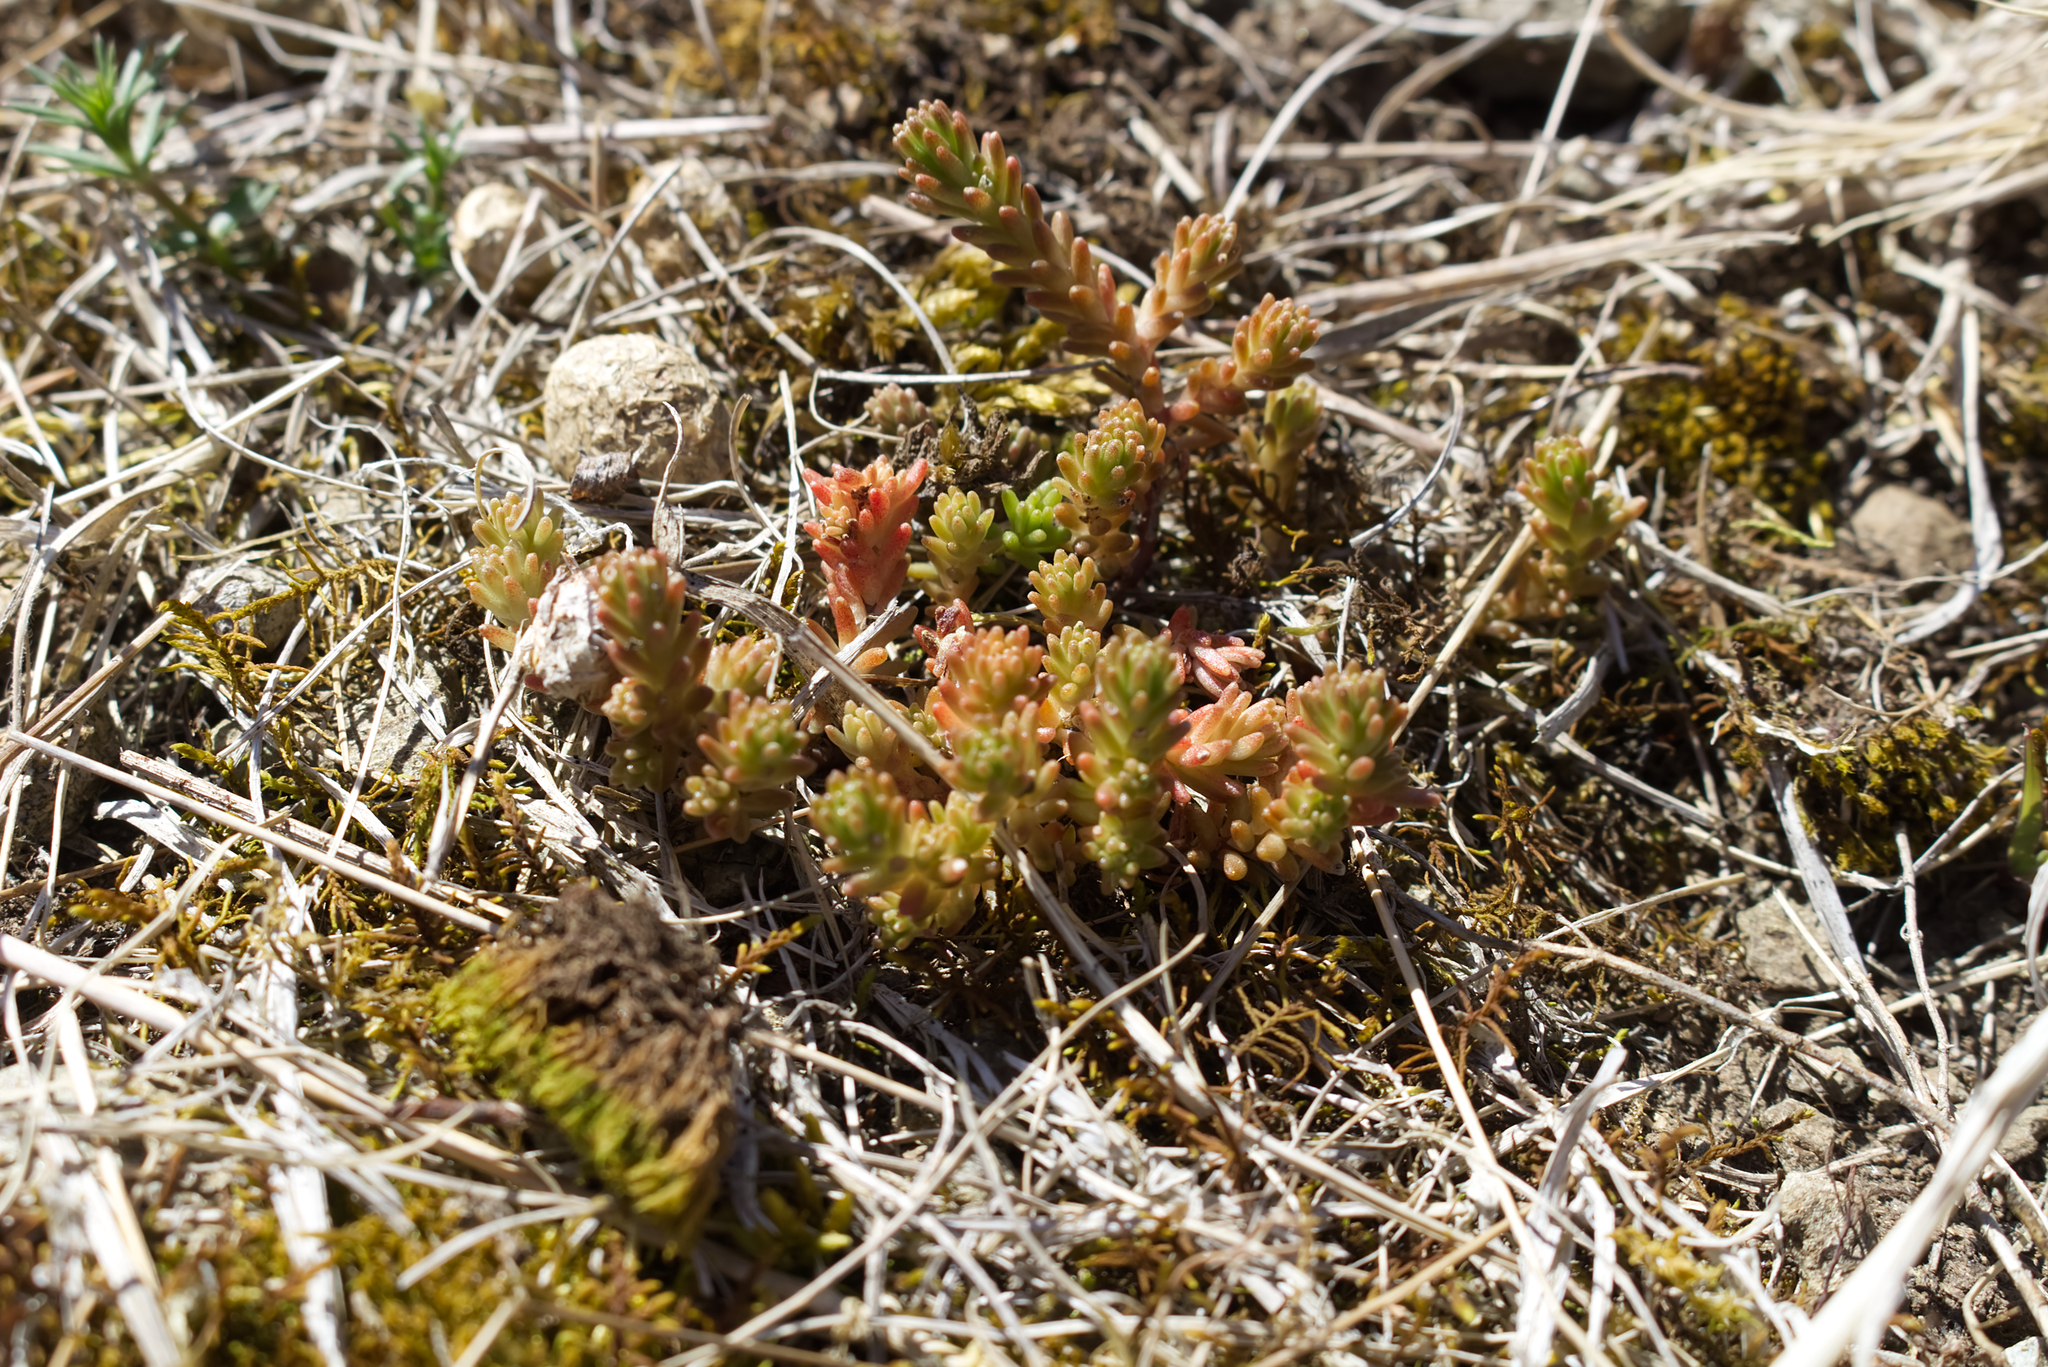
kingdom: Plantae
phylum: Tracheophyta
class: Magnoliopsida
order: Saxifragales
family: Crassulaceae
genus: Sedum
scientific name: Sedum sexangulare
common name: Tasteless stonecrop
